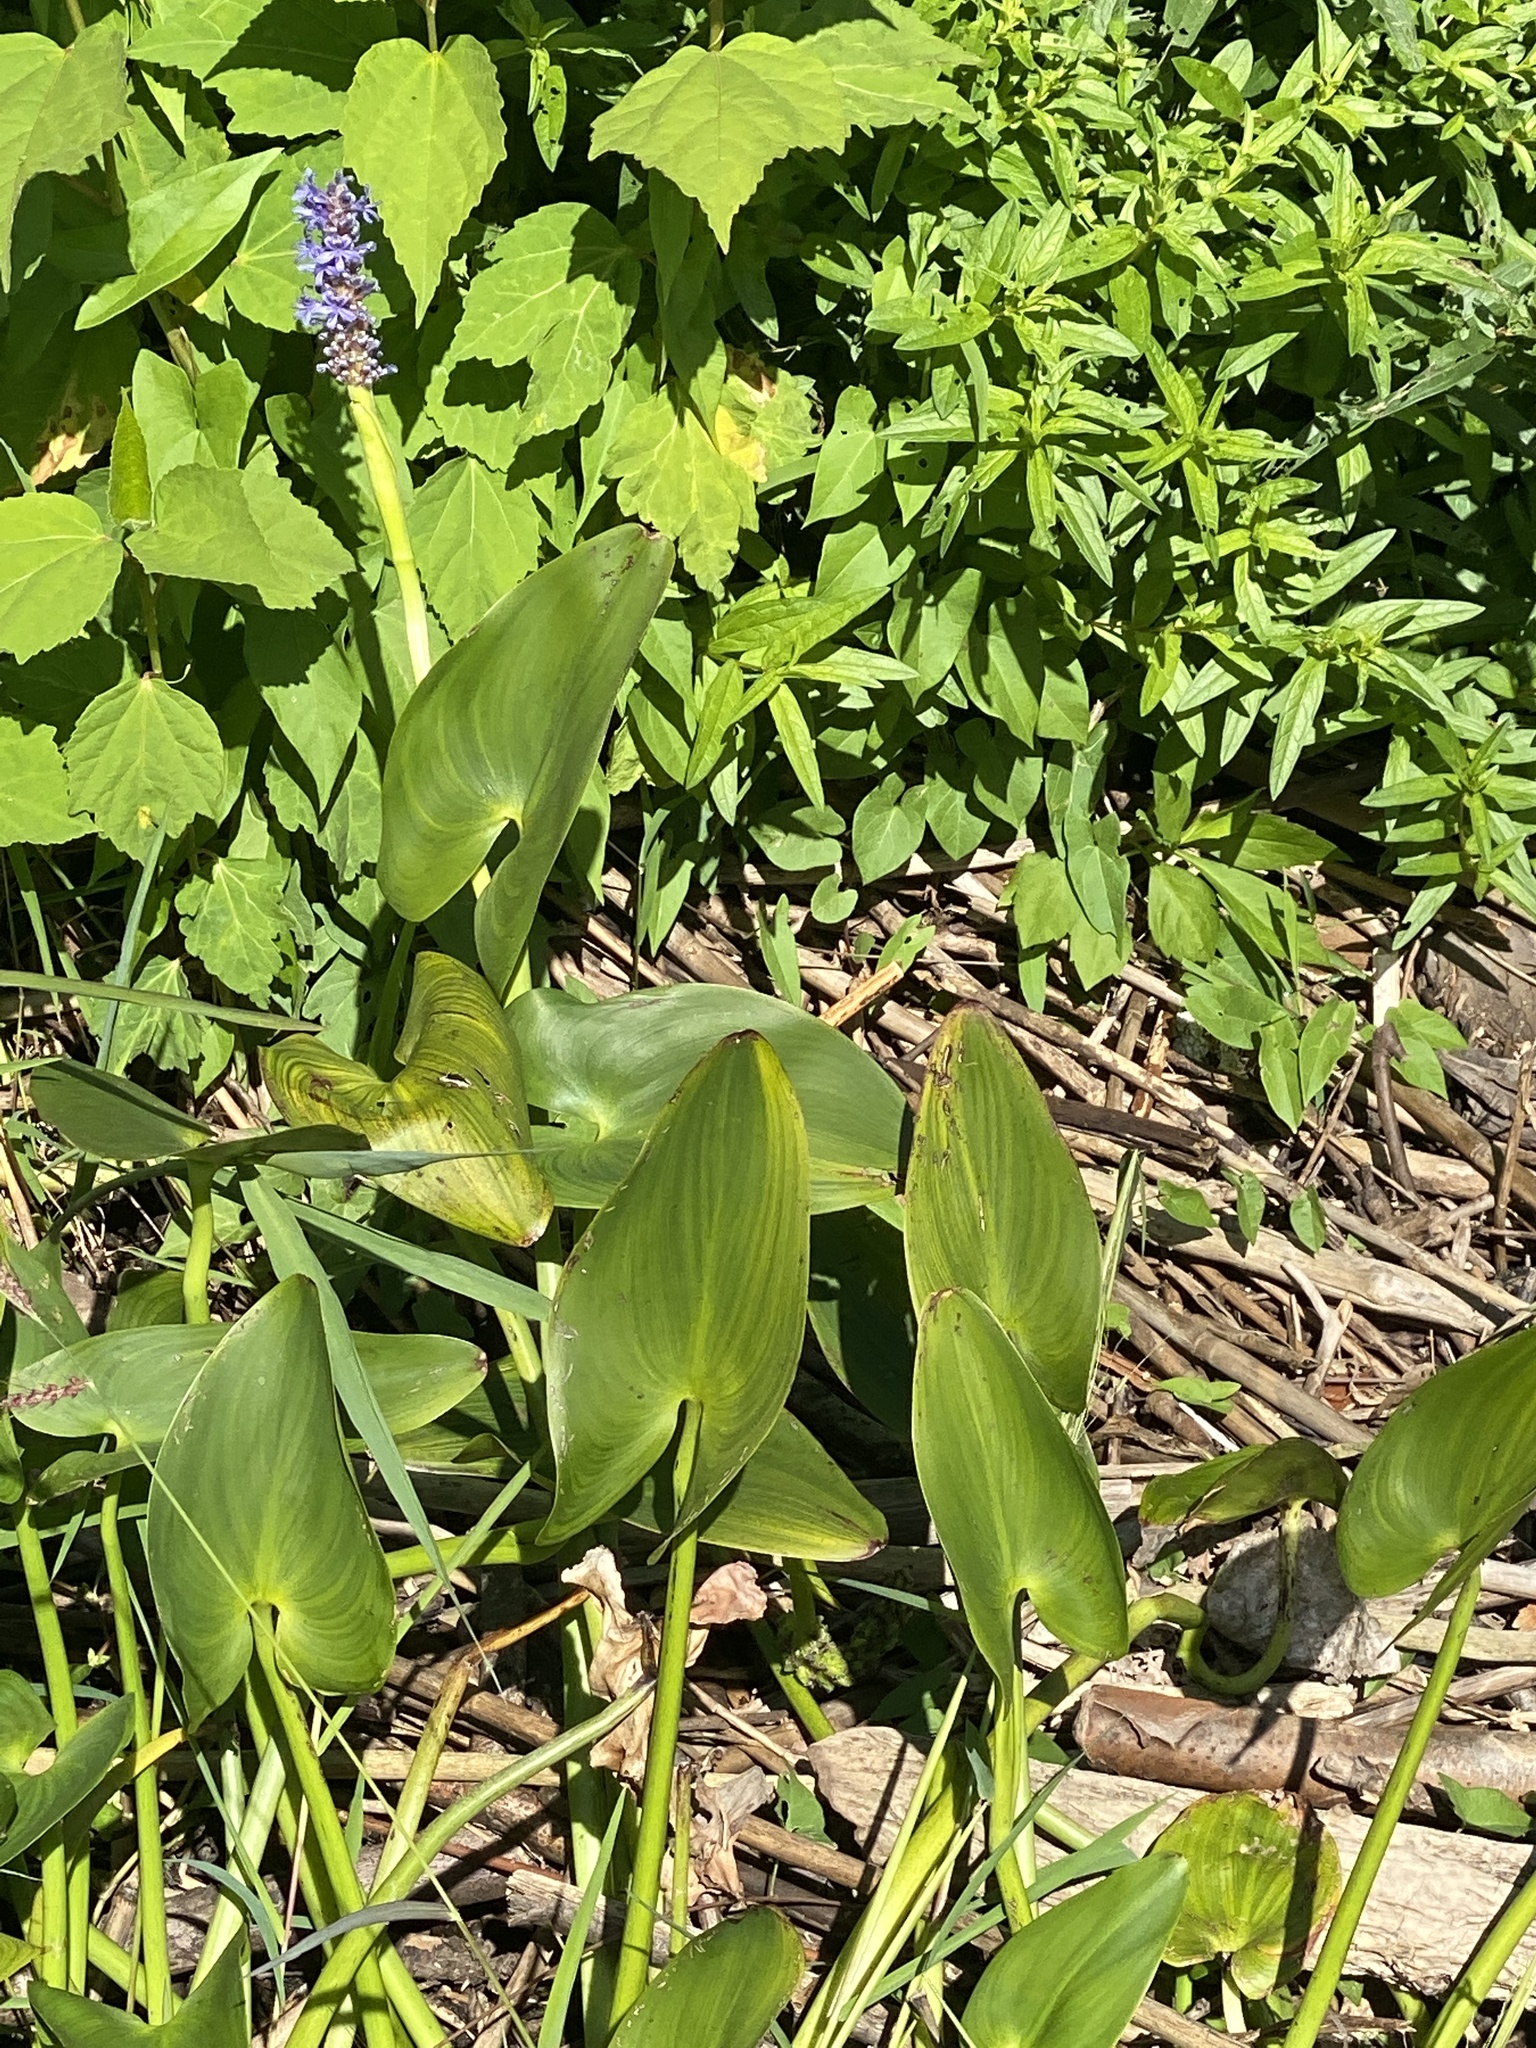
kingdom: Plantae
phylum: Tracheophyta
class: Liliopsida
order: Commelinales
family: Pontederiaceae
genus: Pontederia
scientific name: Pontederia cordata
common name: Pickerelweed
